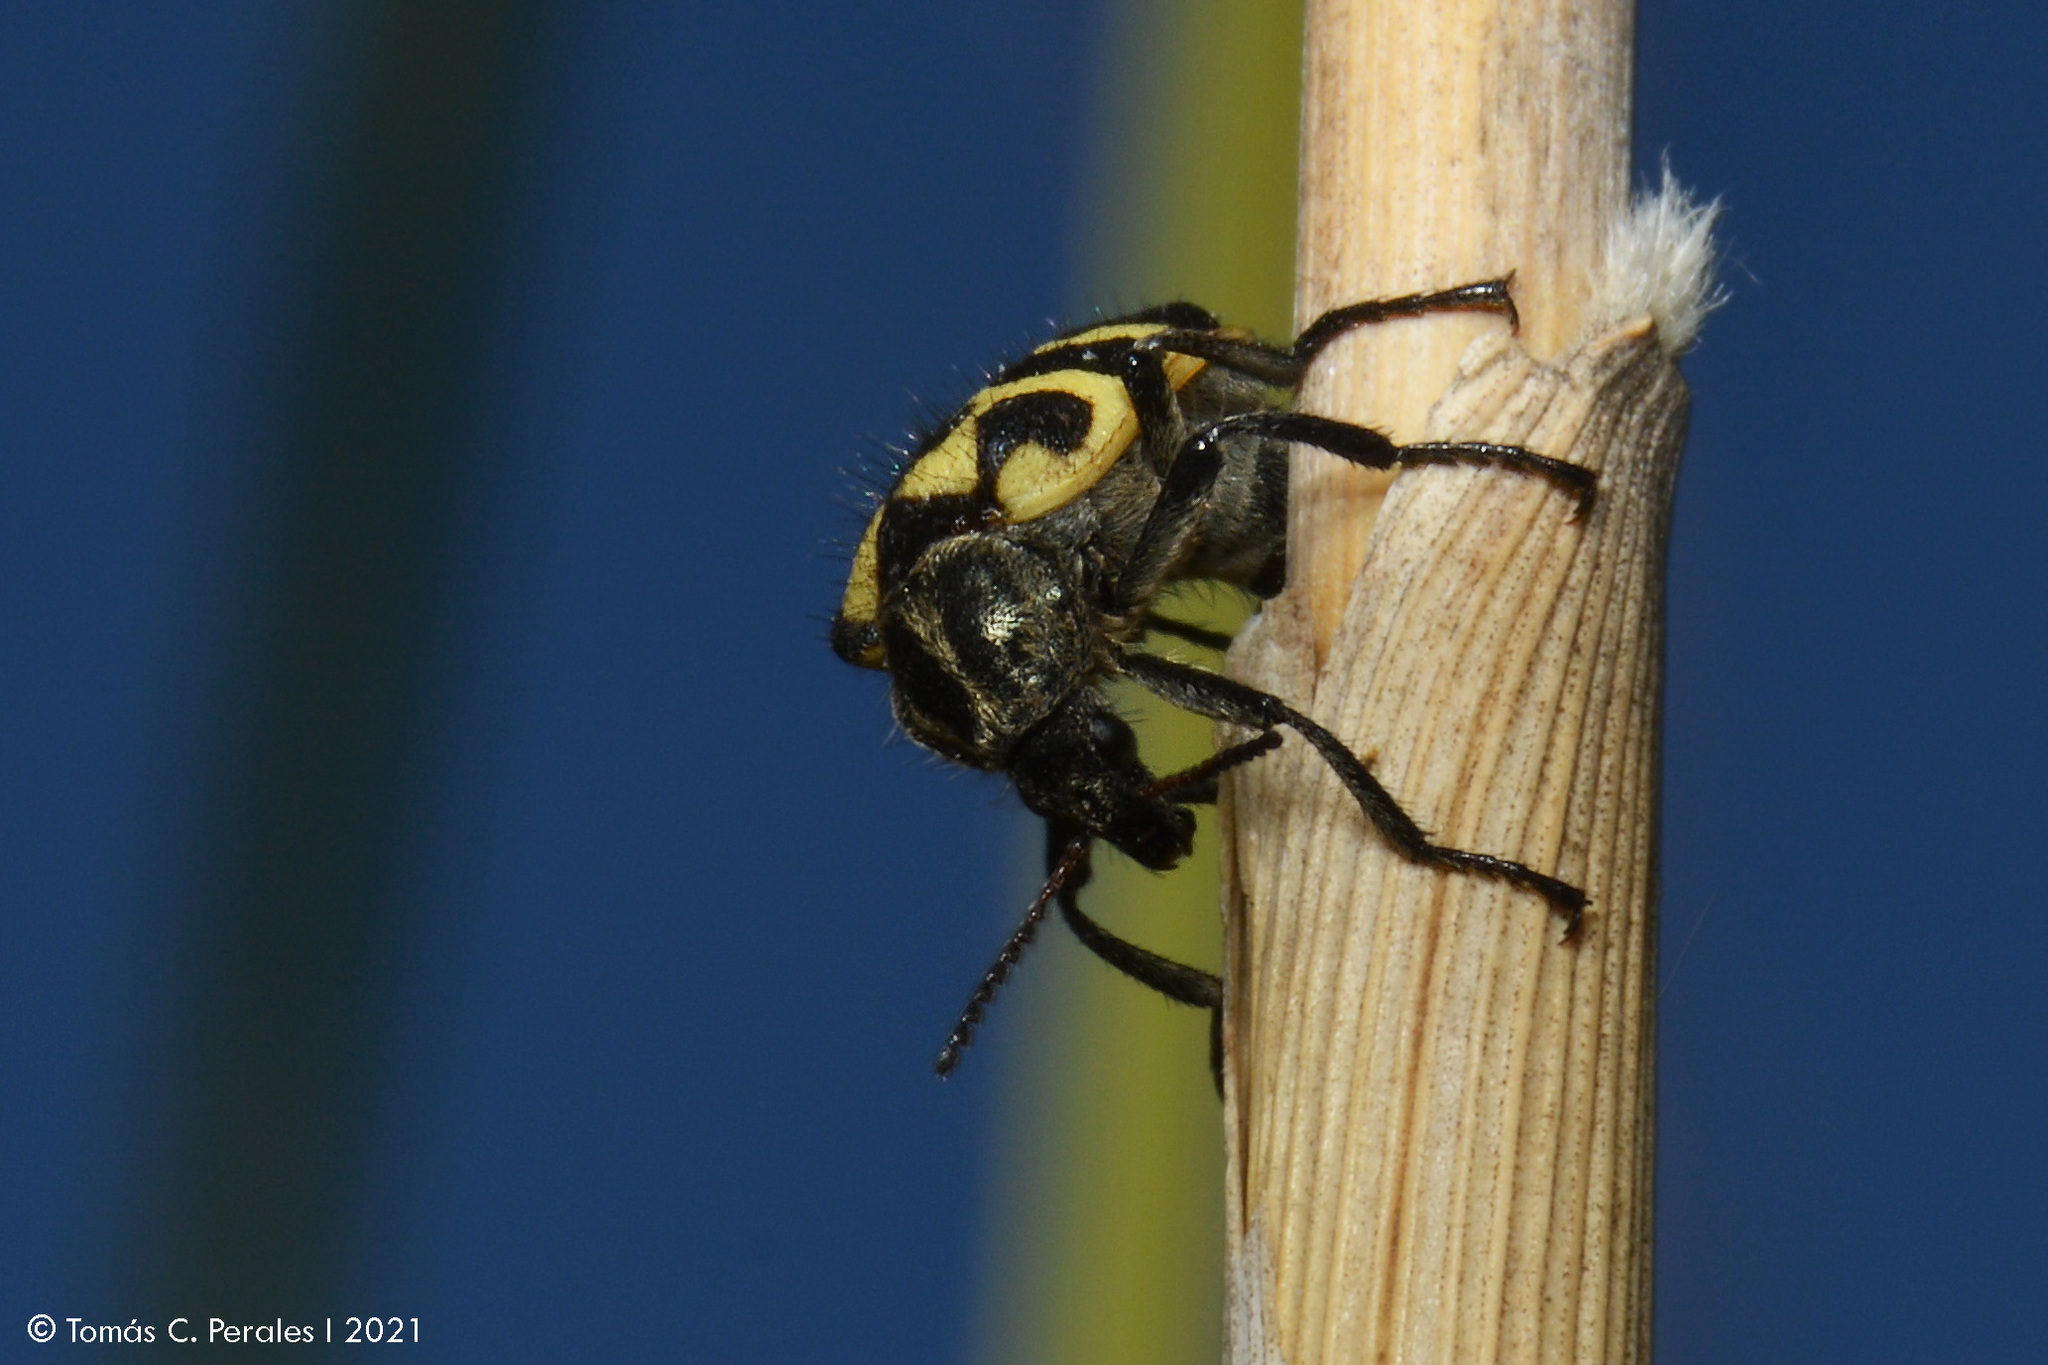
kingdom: Animalia
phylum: Arthropoda
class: Insecta
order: Coleoptera
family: Melyridae
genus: Astylus
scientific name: Astylus atromaculatus
